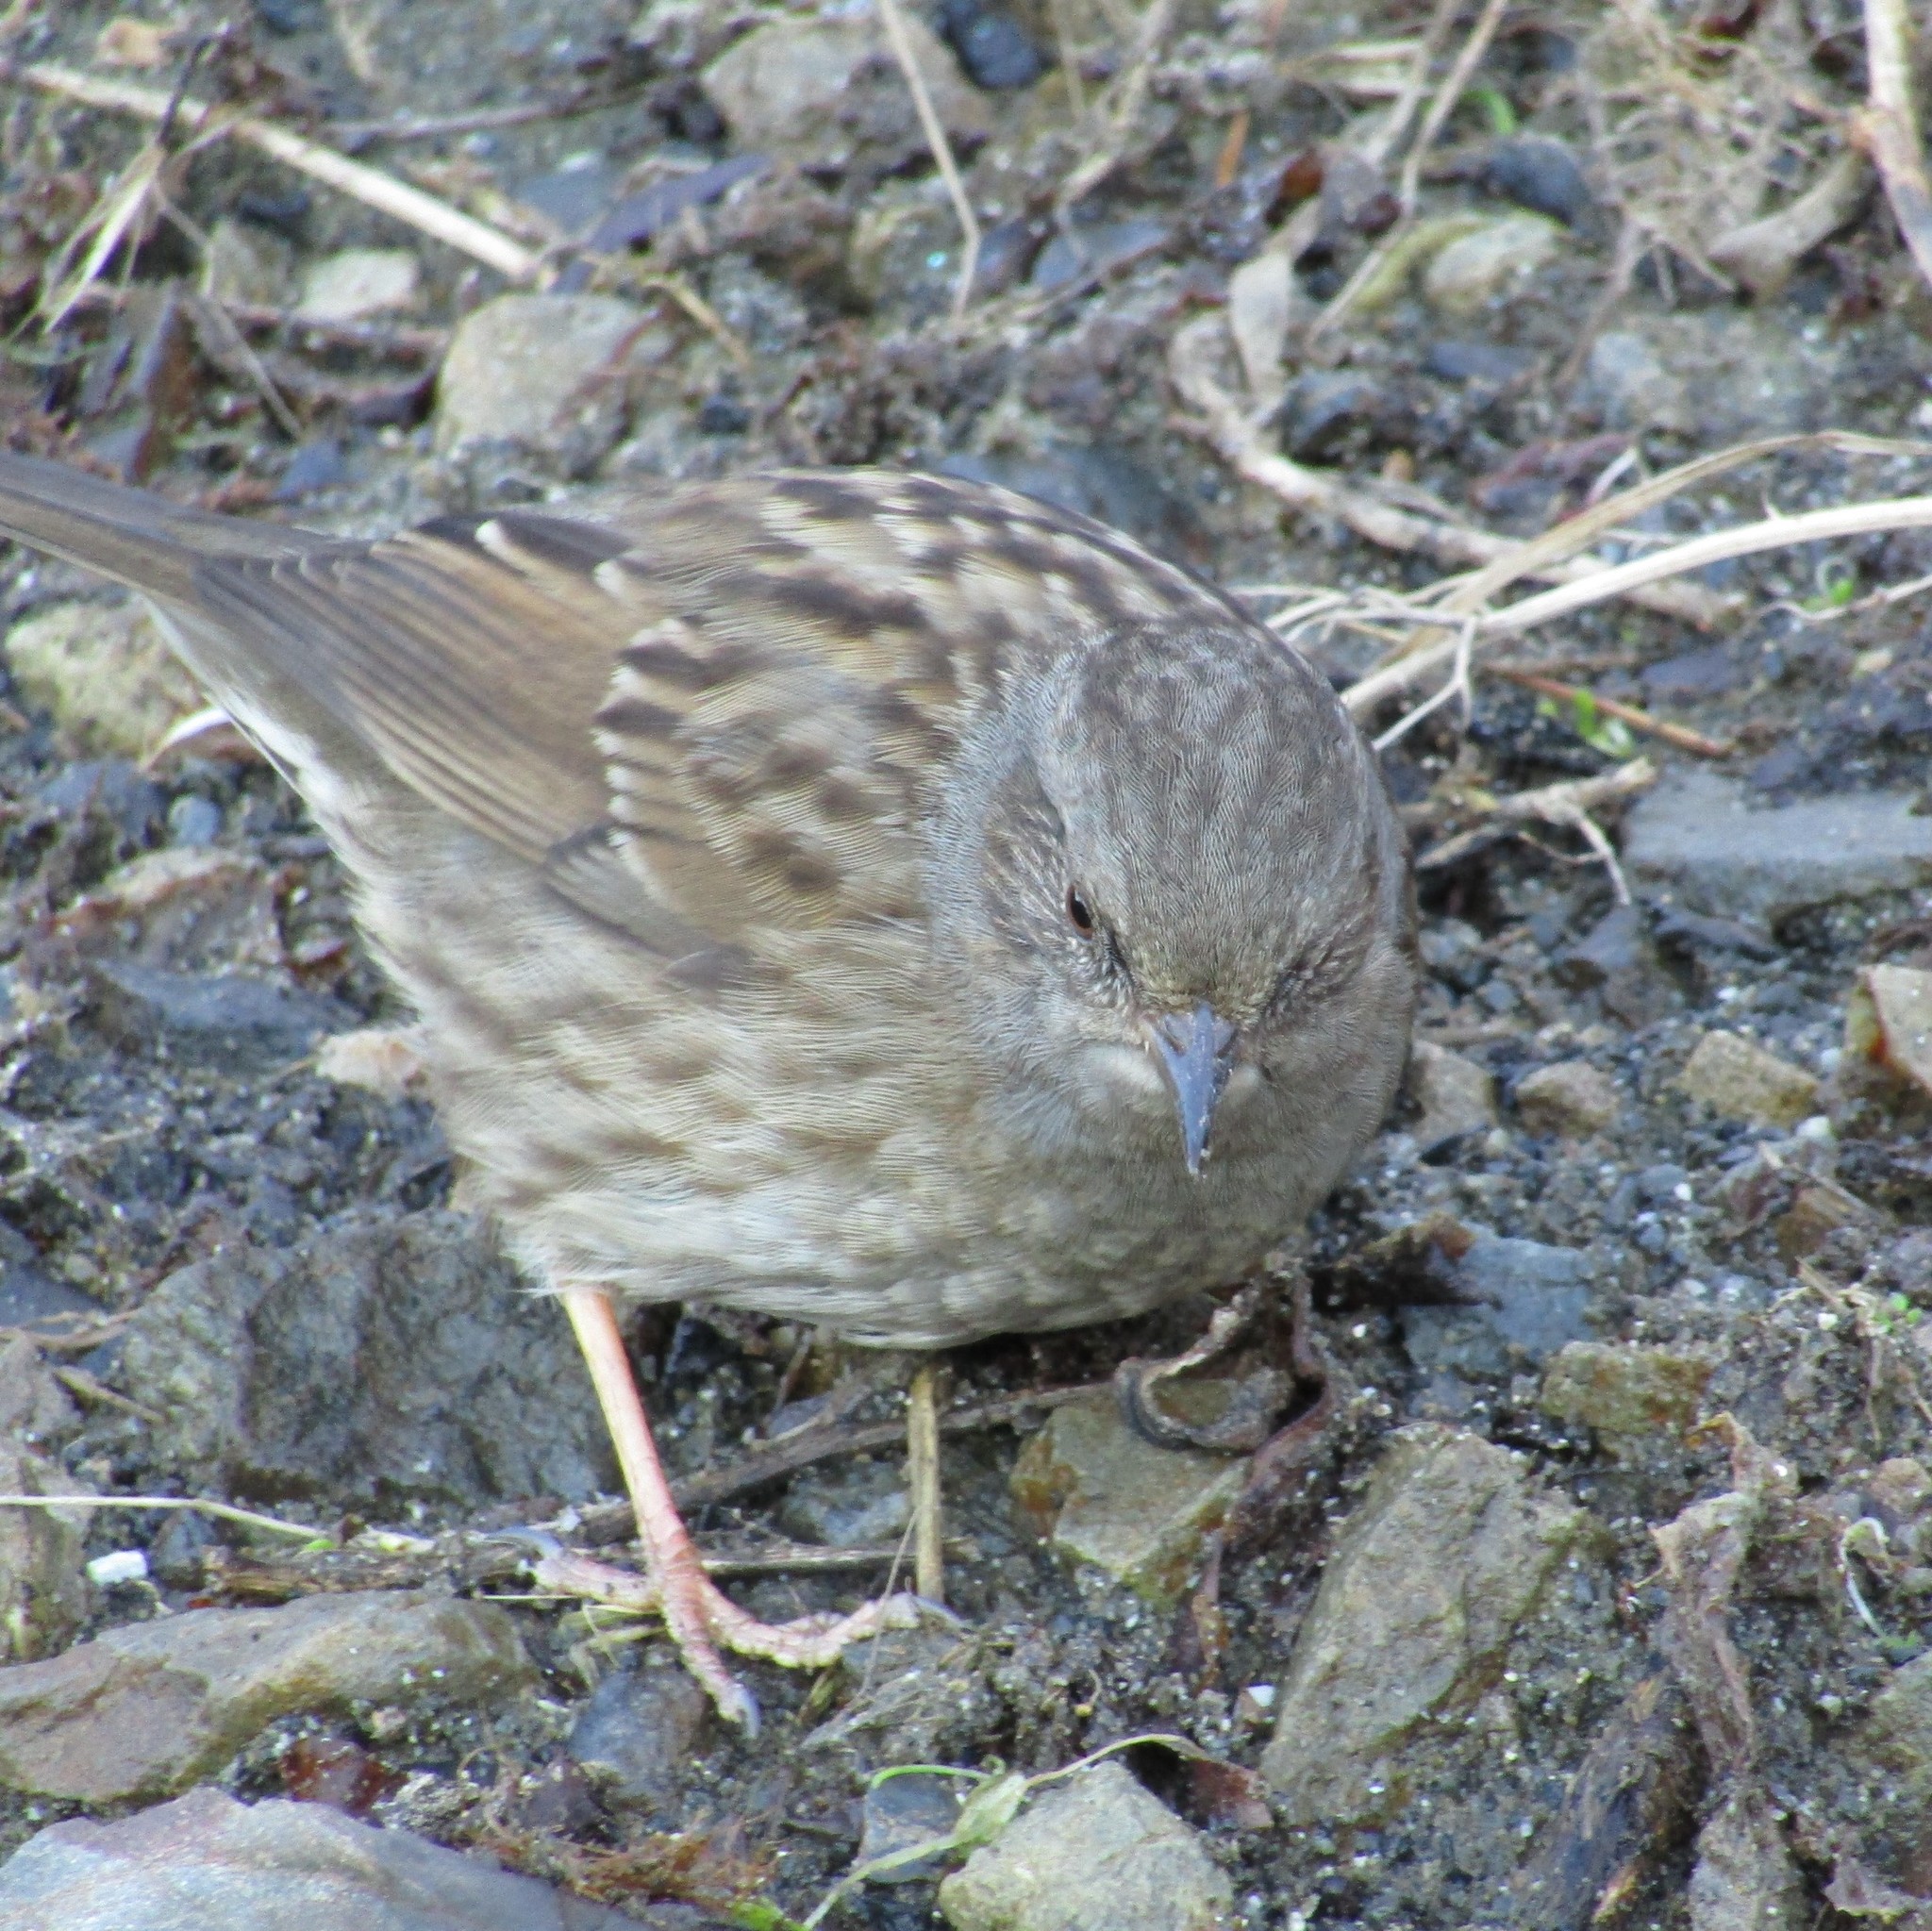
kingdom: Animalia
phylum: Chordata
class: Aves
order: Passeriformes
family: Prunellidae
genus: Prunella
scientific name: Prunella modularis
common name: Dunnock
